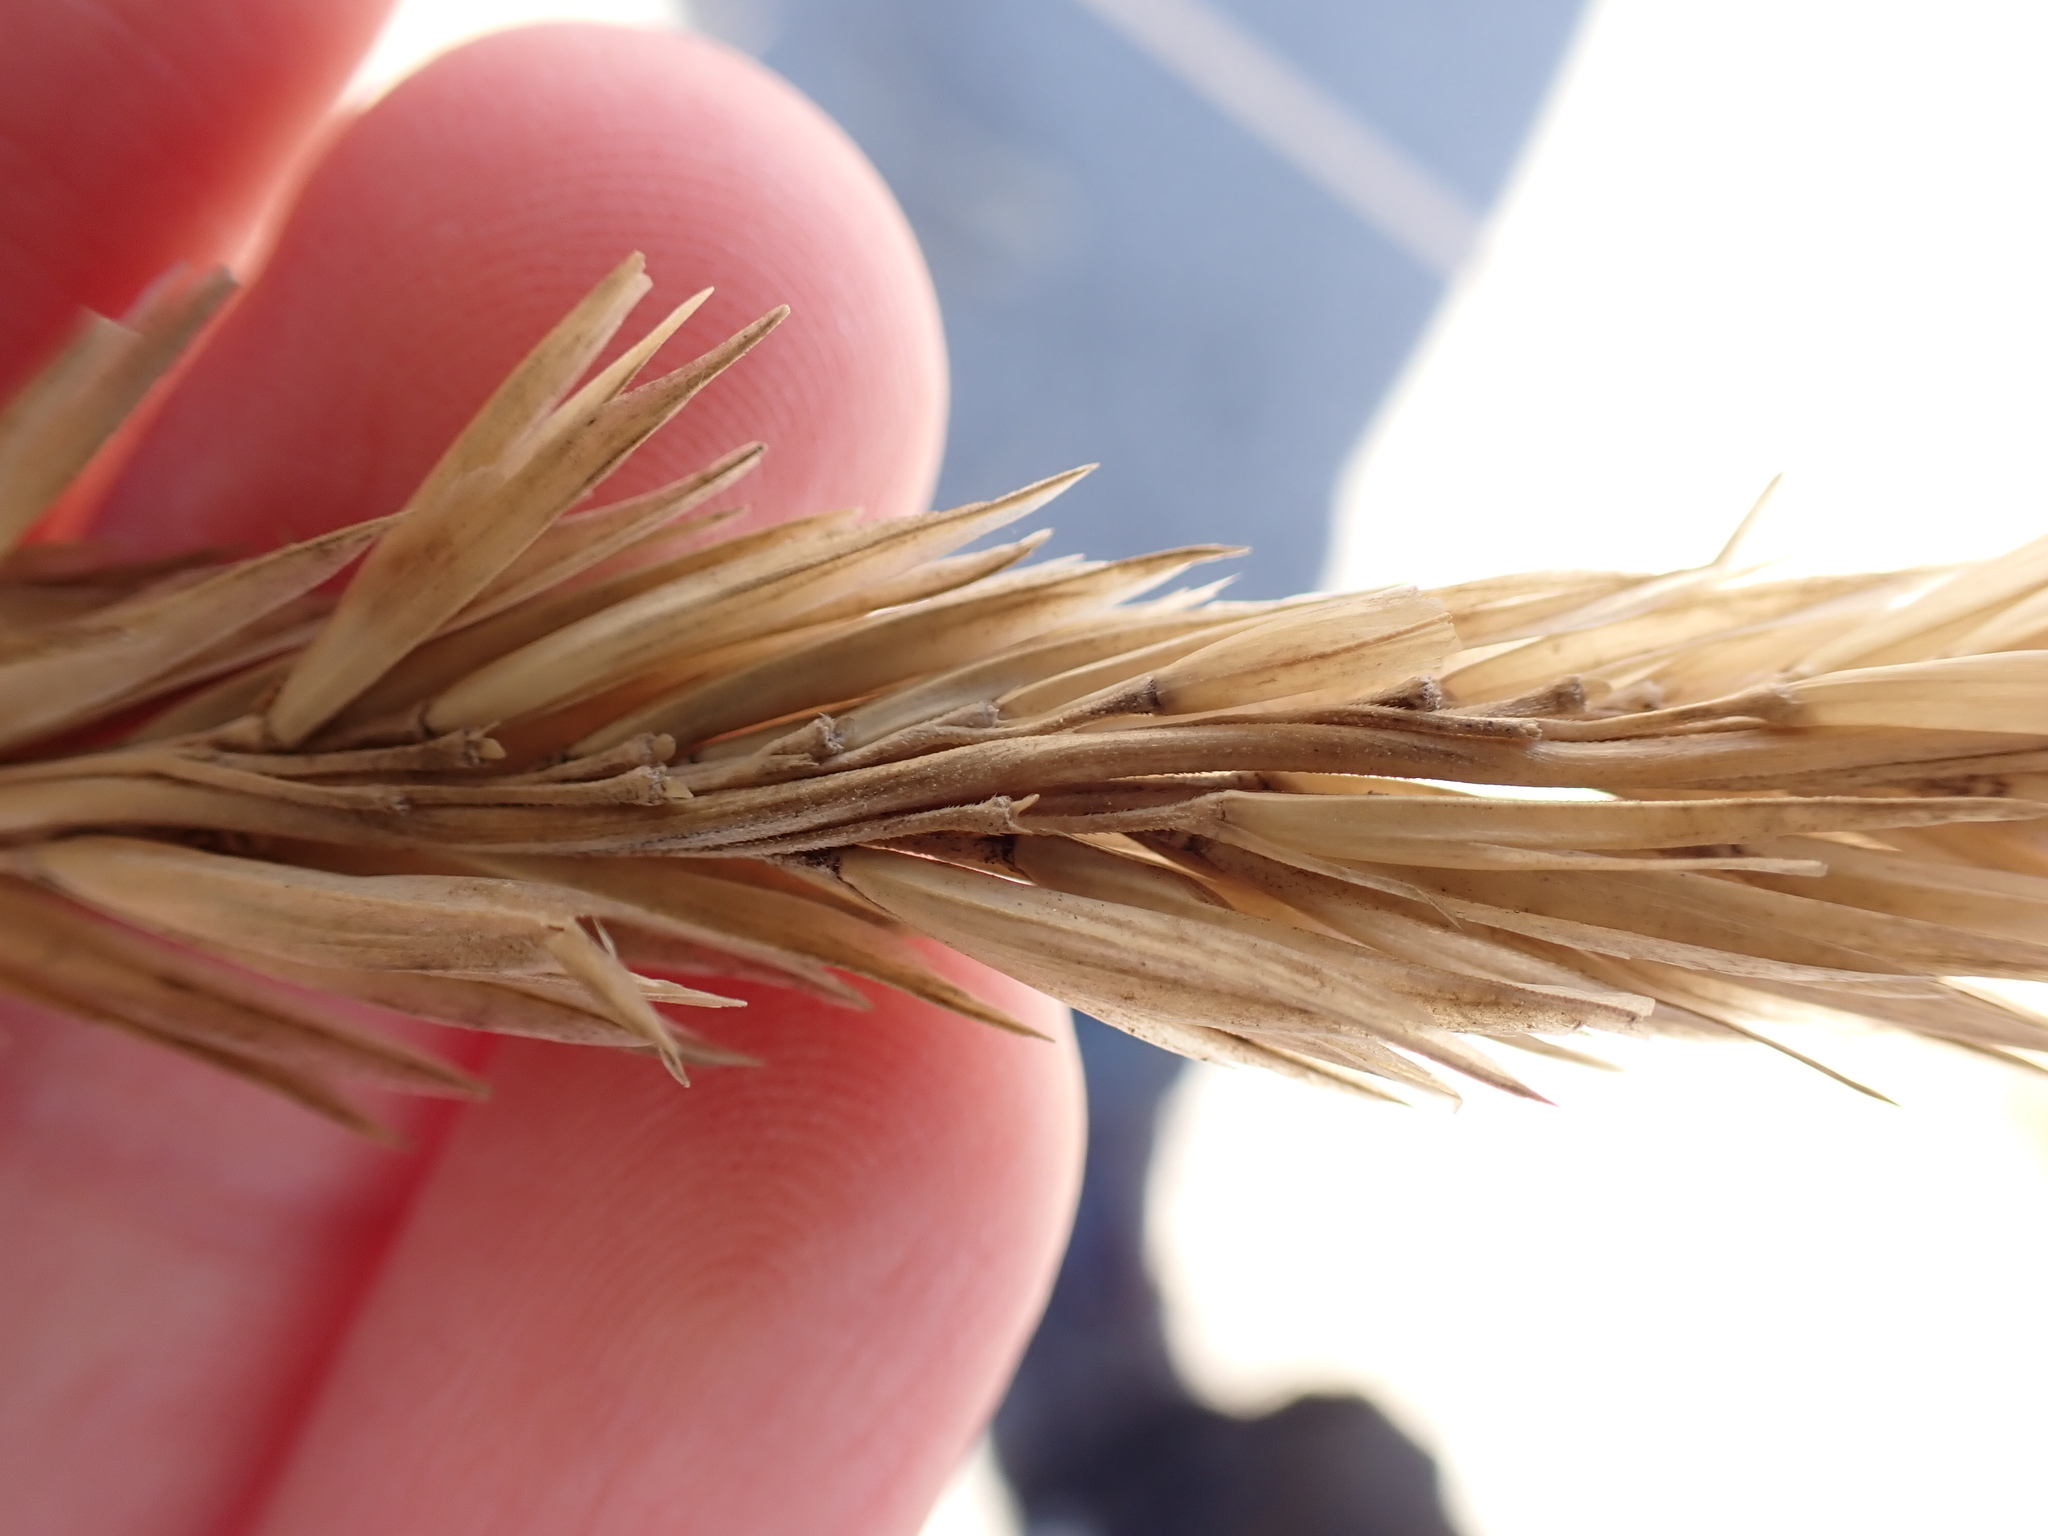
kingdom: Plantae
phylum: Tracheophyta
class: Liliopsida
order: Poales
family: Poaceae
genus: Calamagrostis
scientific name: Calamagrostis breviligulata
